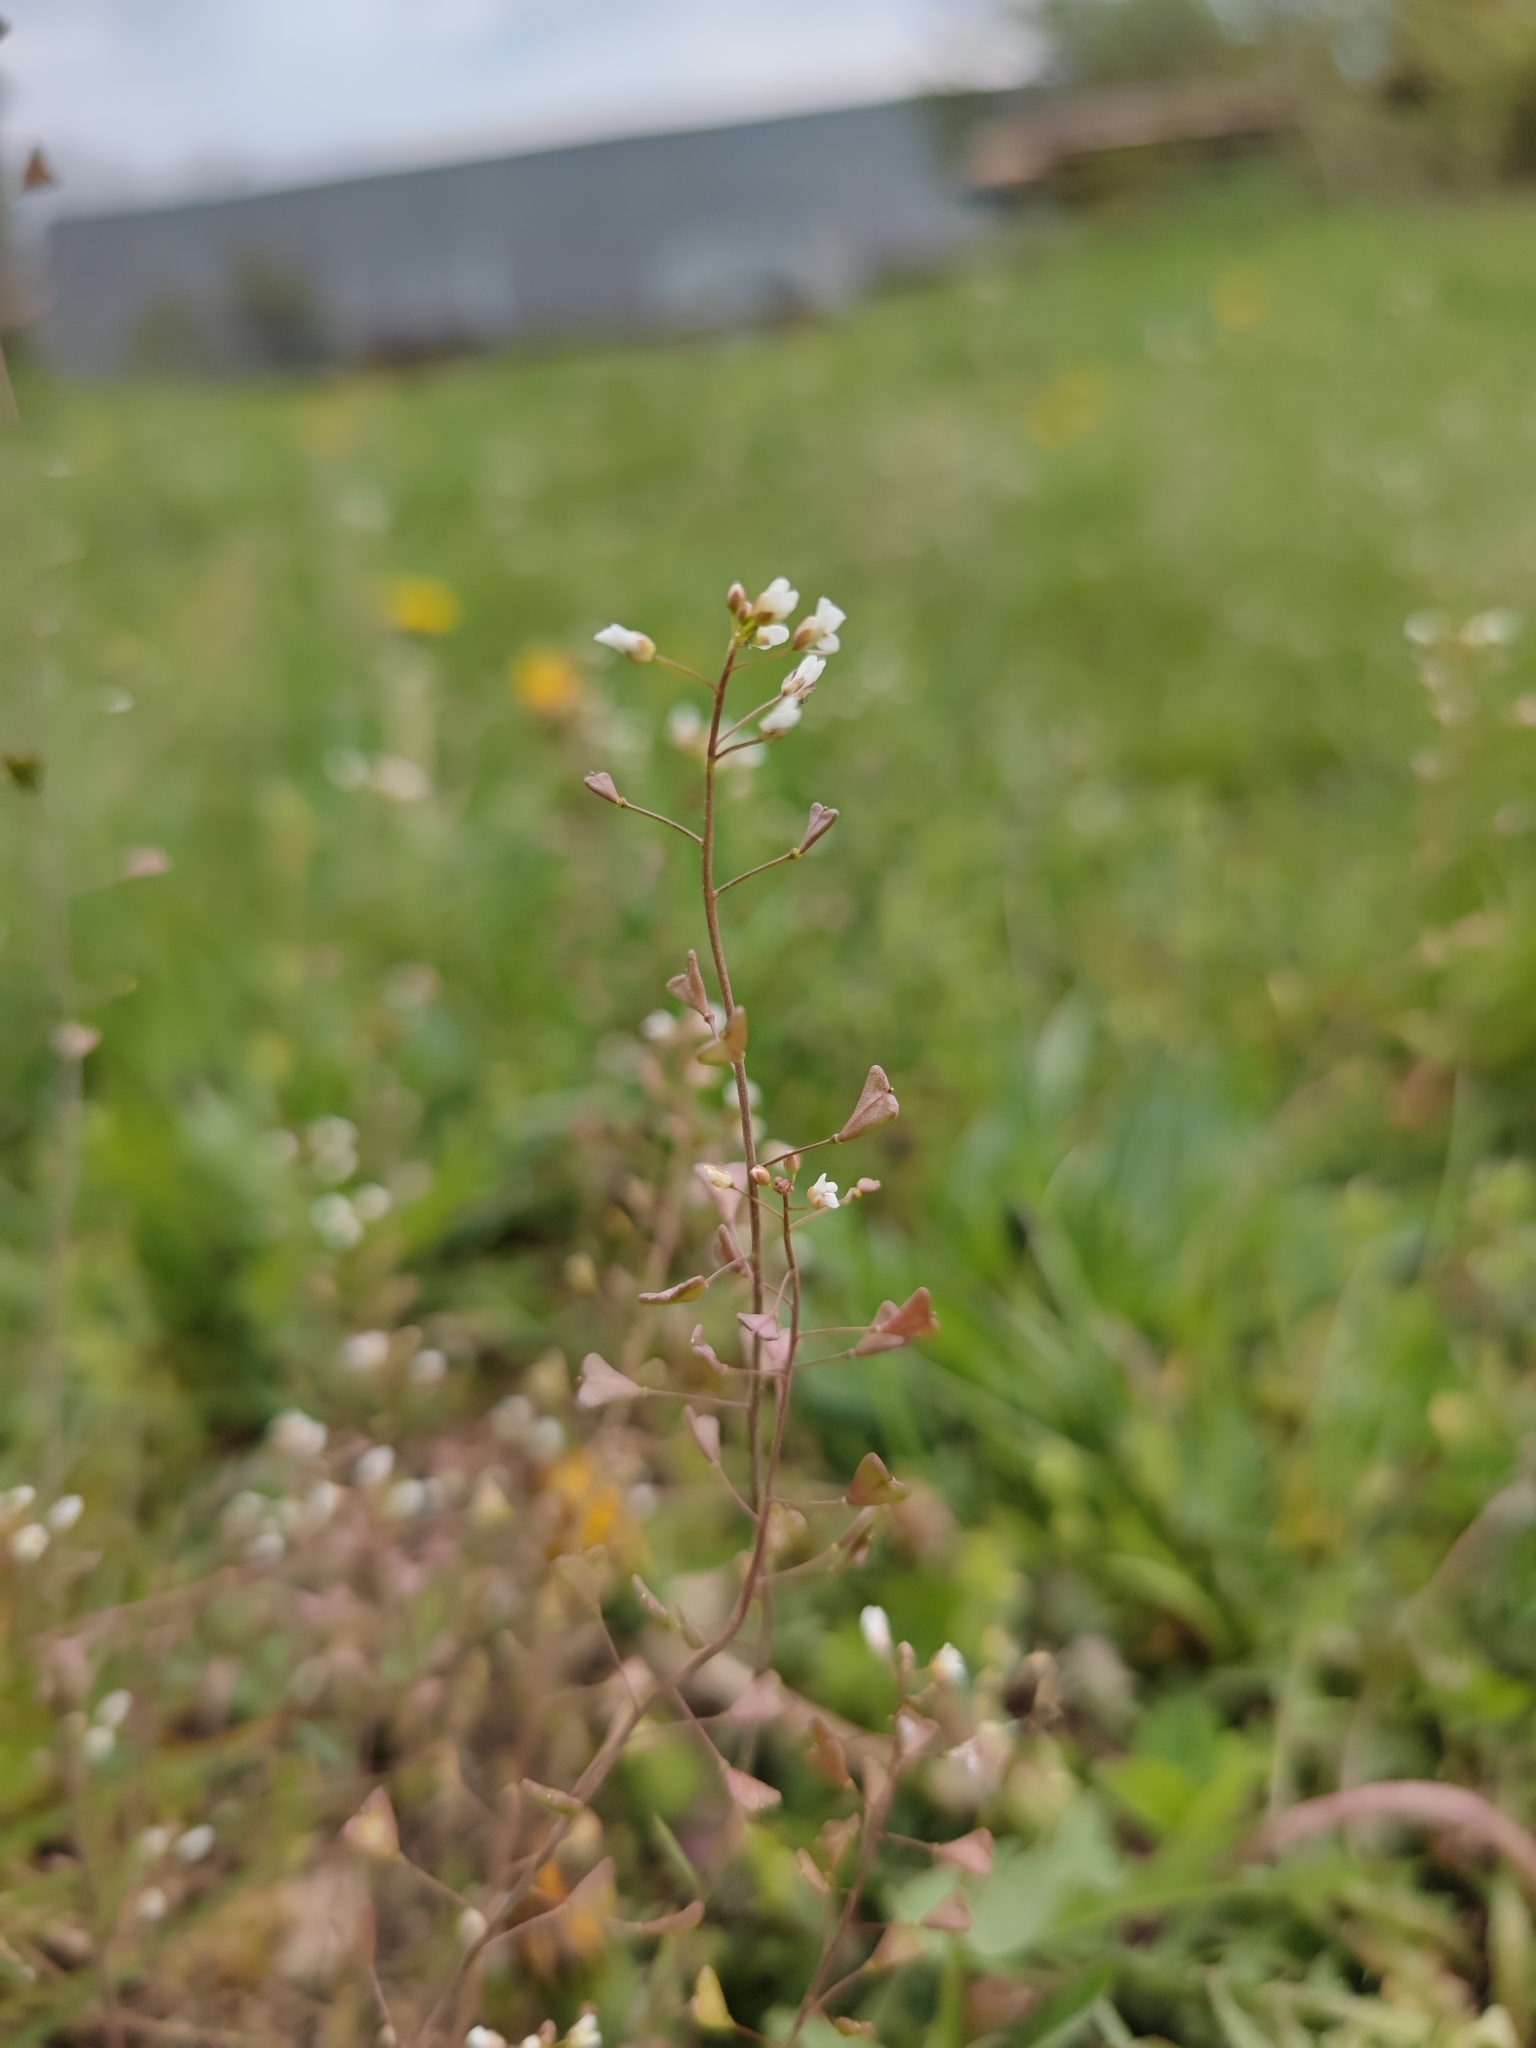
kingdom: Plantae
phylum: Tracheophyta
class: Magnoliopsida
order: Brassicales
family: Brassicaceae
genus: Capsella
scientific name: Capsella bursa-pastoris
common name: Shepherd's purse
